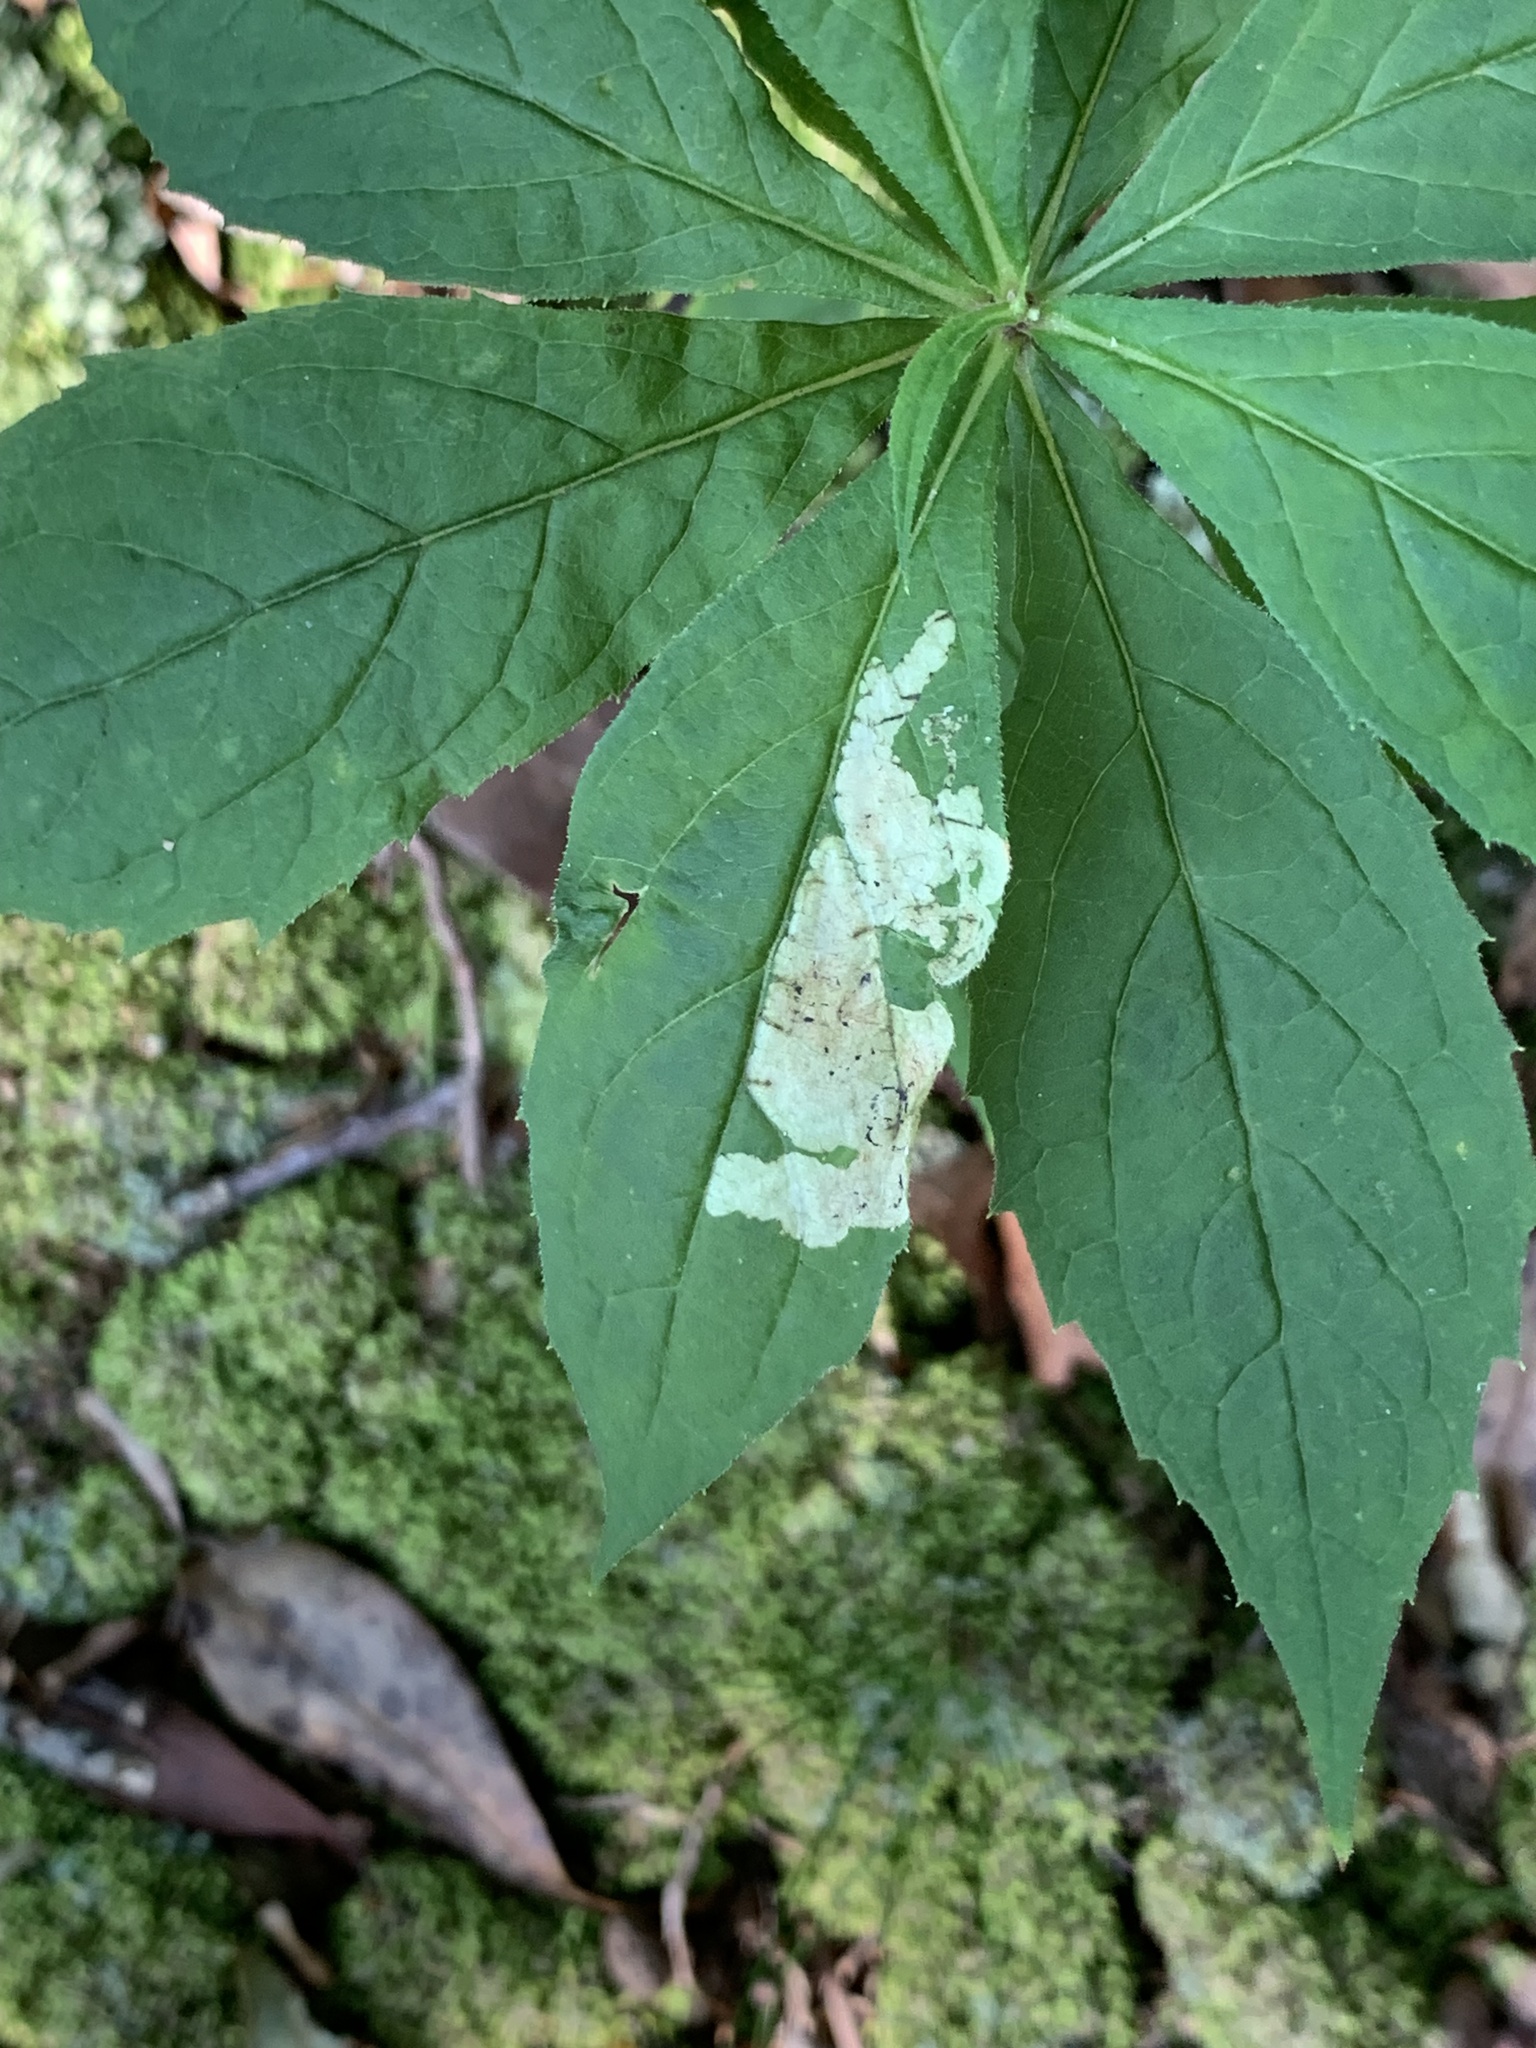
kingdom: Animalia
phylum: Arthropoda
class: Insecta
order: Diptera
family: Agromyzidae
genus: Liriomyza
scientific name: Liriomyza limopsis
